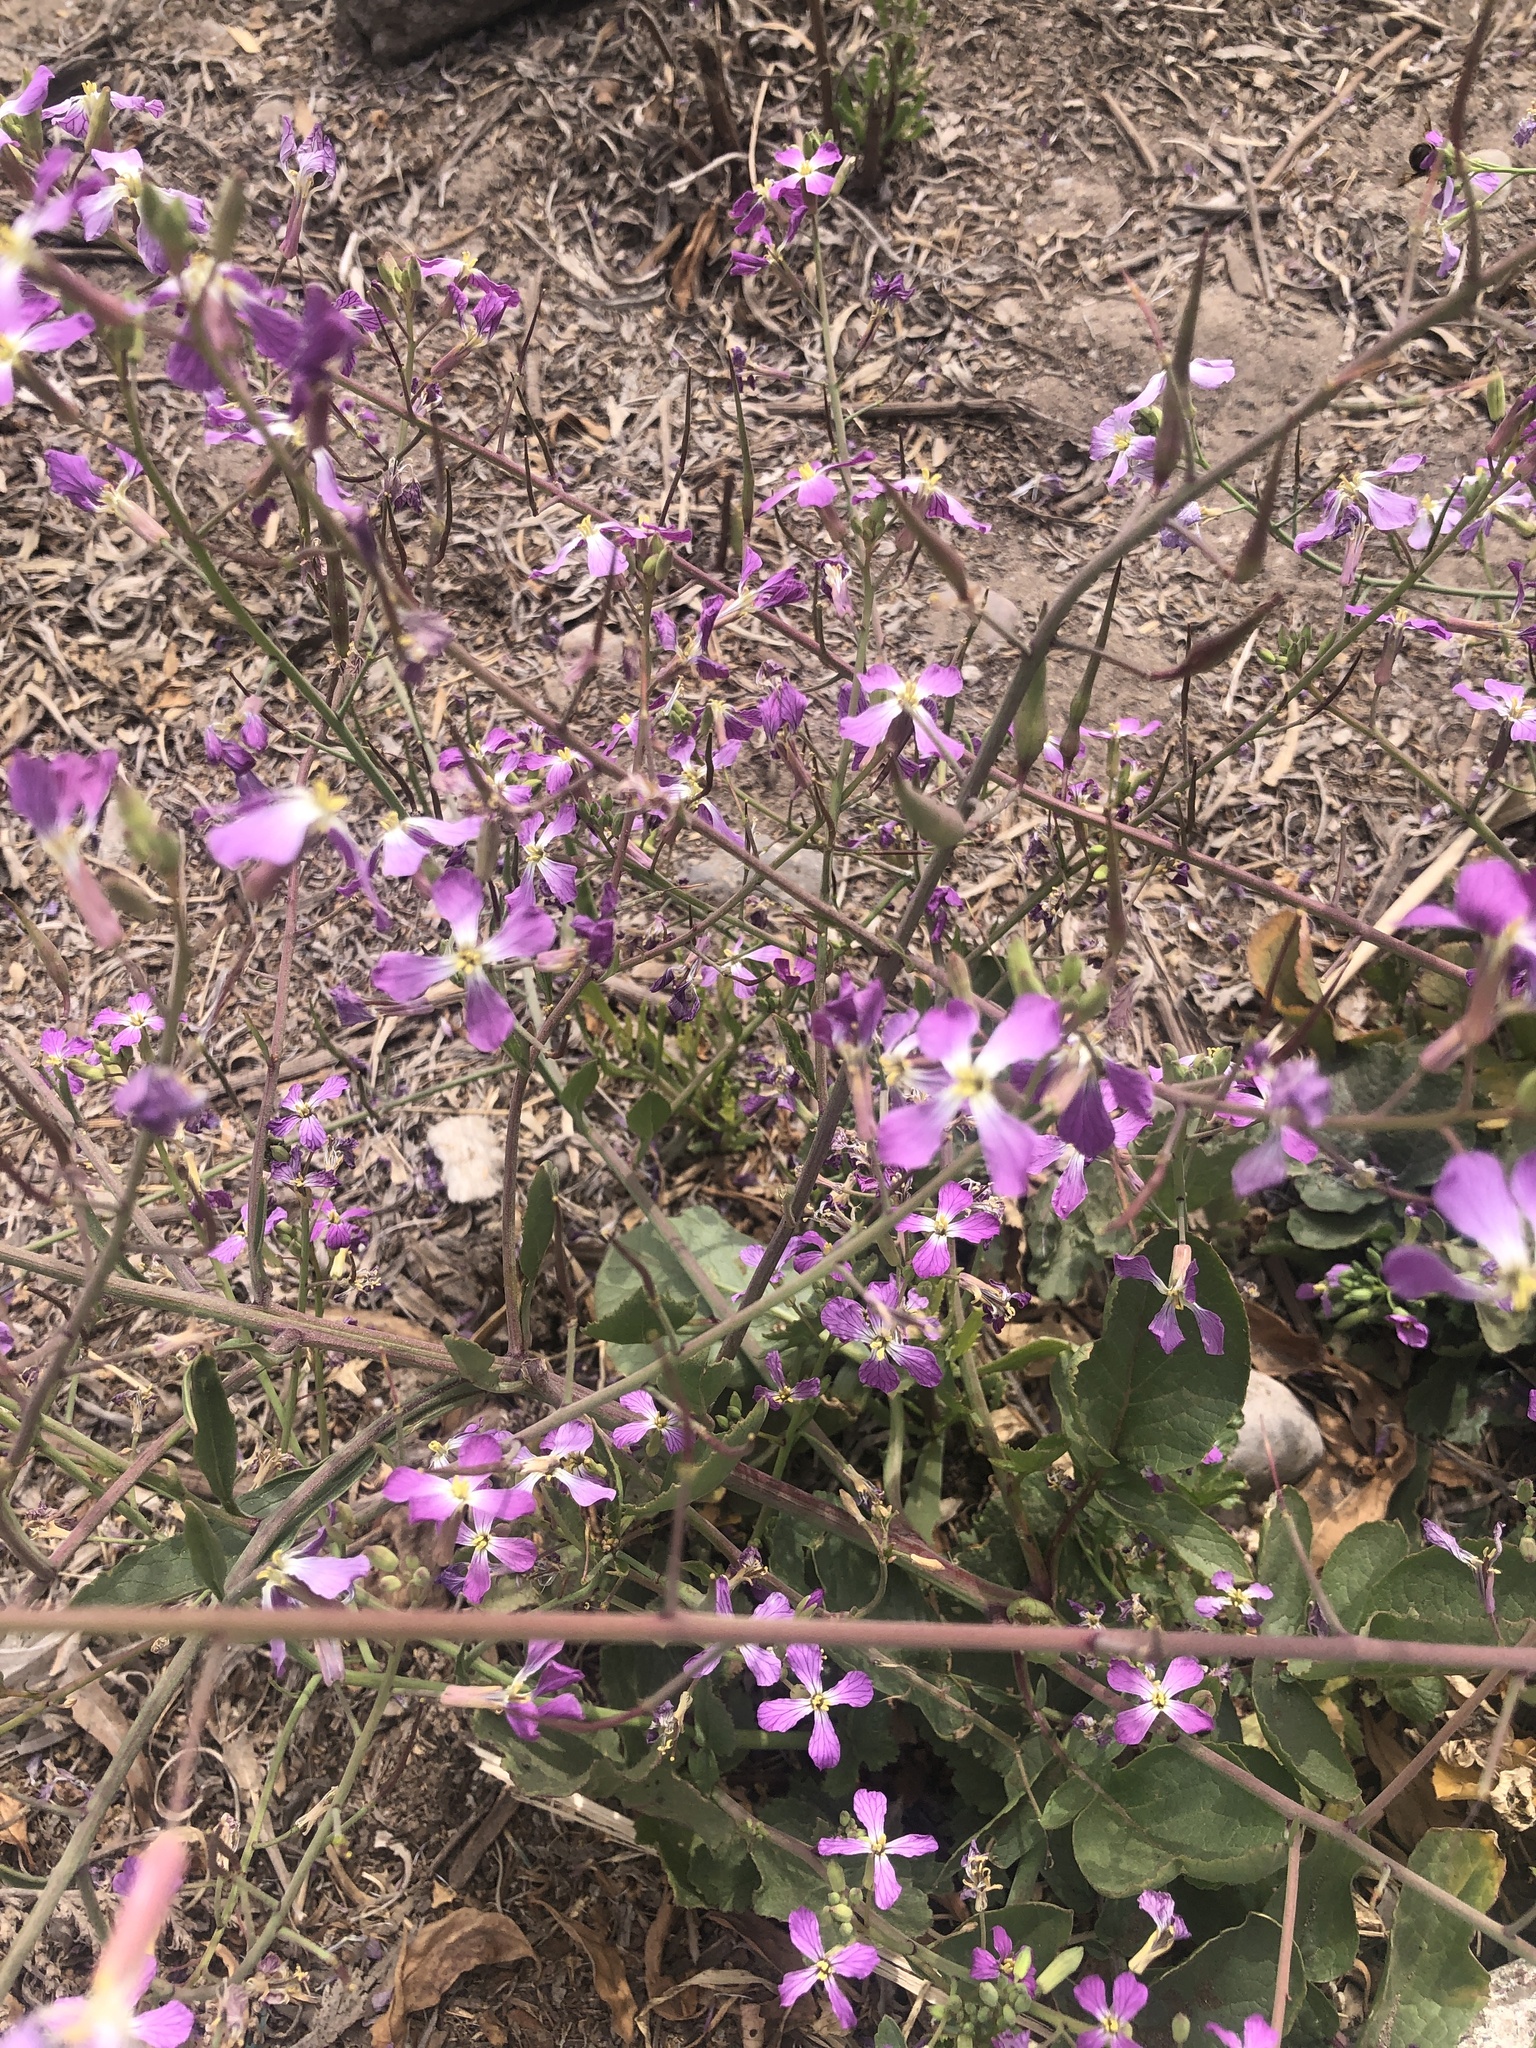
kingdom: Plantae
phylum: Tracheophyta
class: Magnoliopsida
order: Brassicales
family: Brassicaceae
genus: Raphanus
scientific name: Raphanus sativus
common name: Cultivated radish
